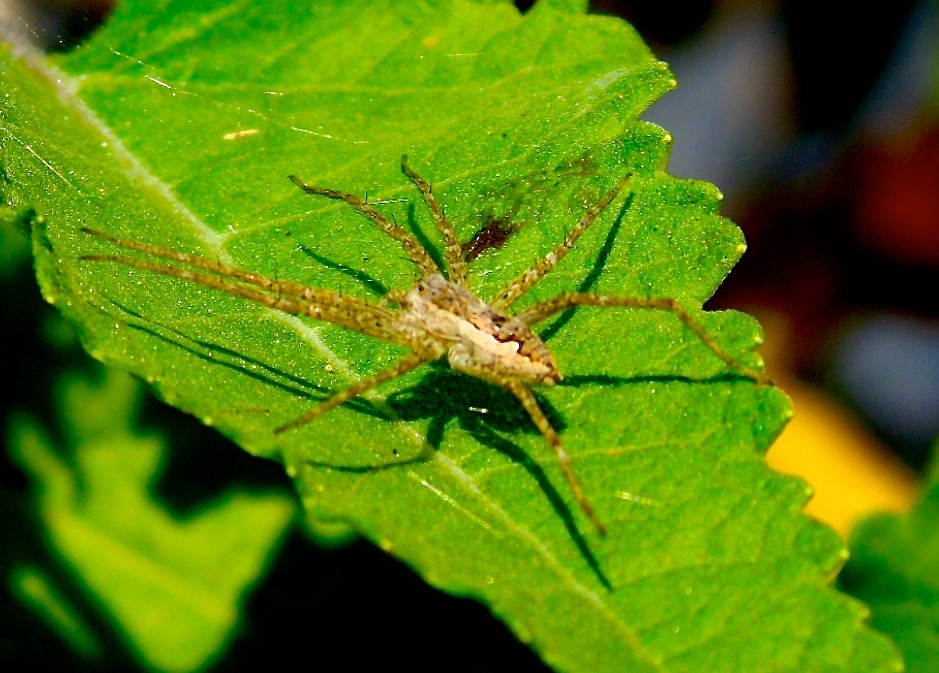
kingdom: Animalia
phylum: Arthropoda
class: Arachnida
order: Araneae
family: Pisauridae
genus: Tinus
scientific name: Tinus
